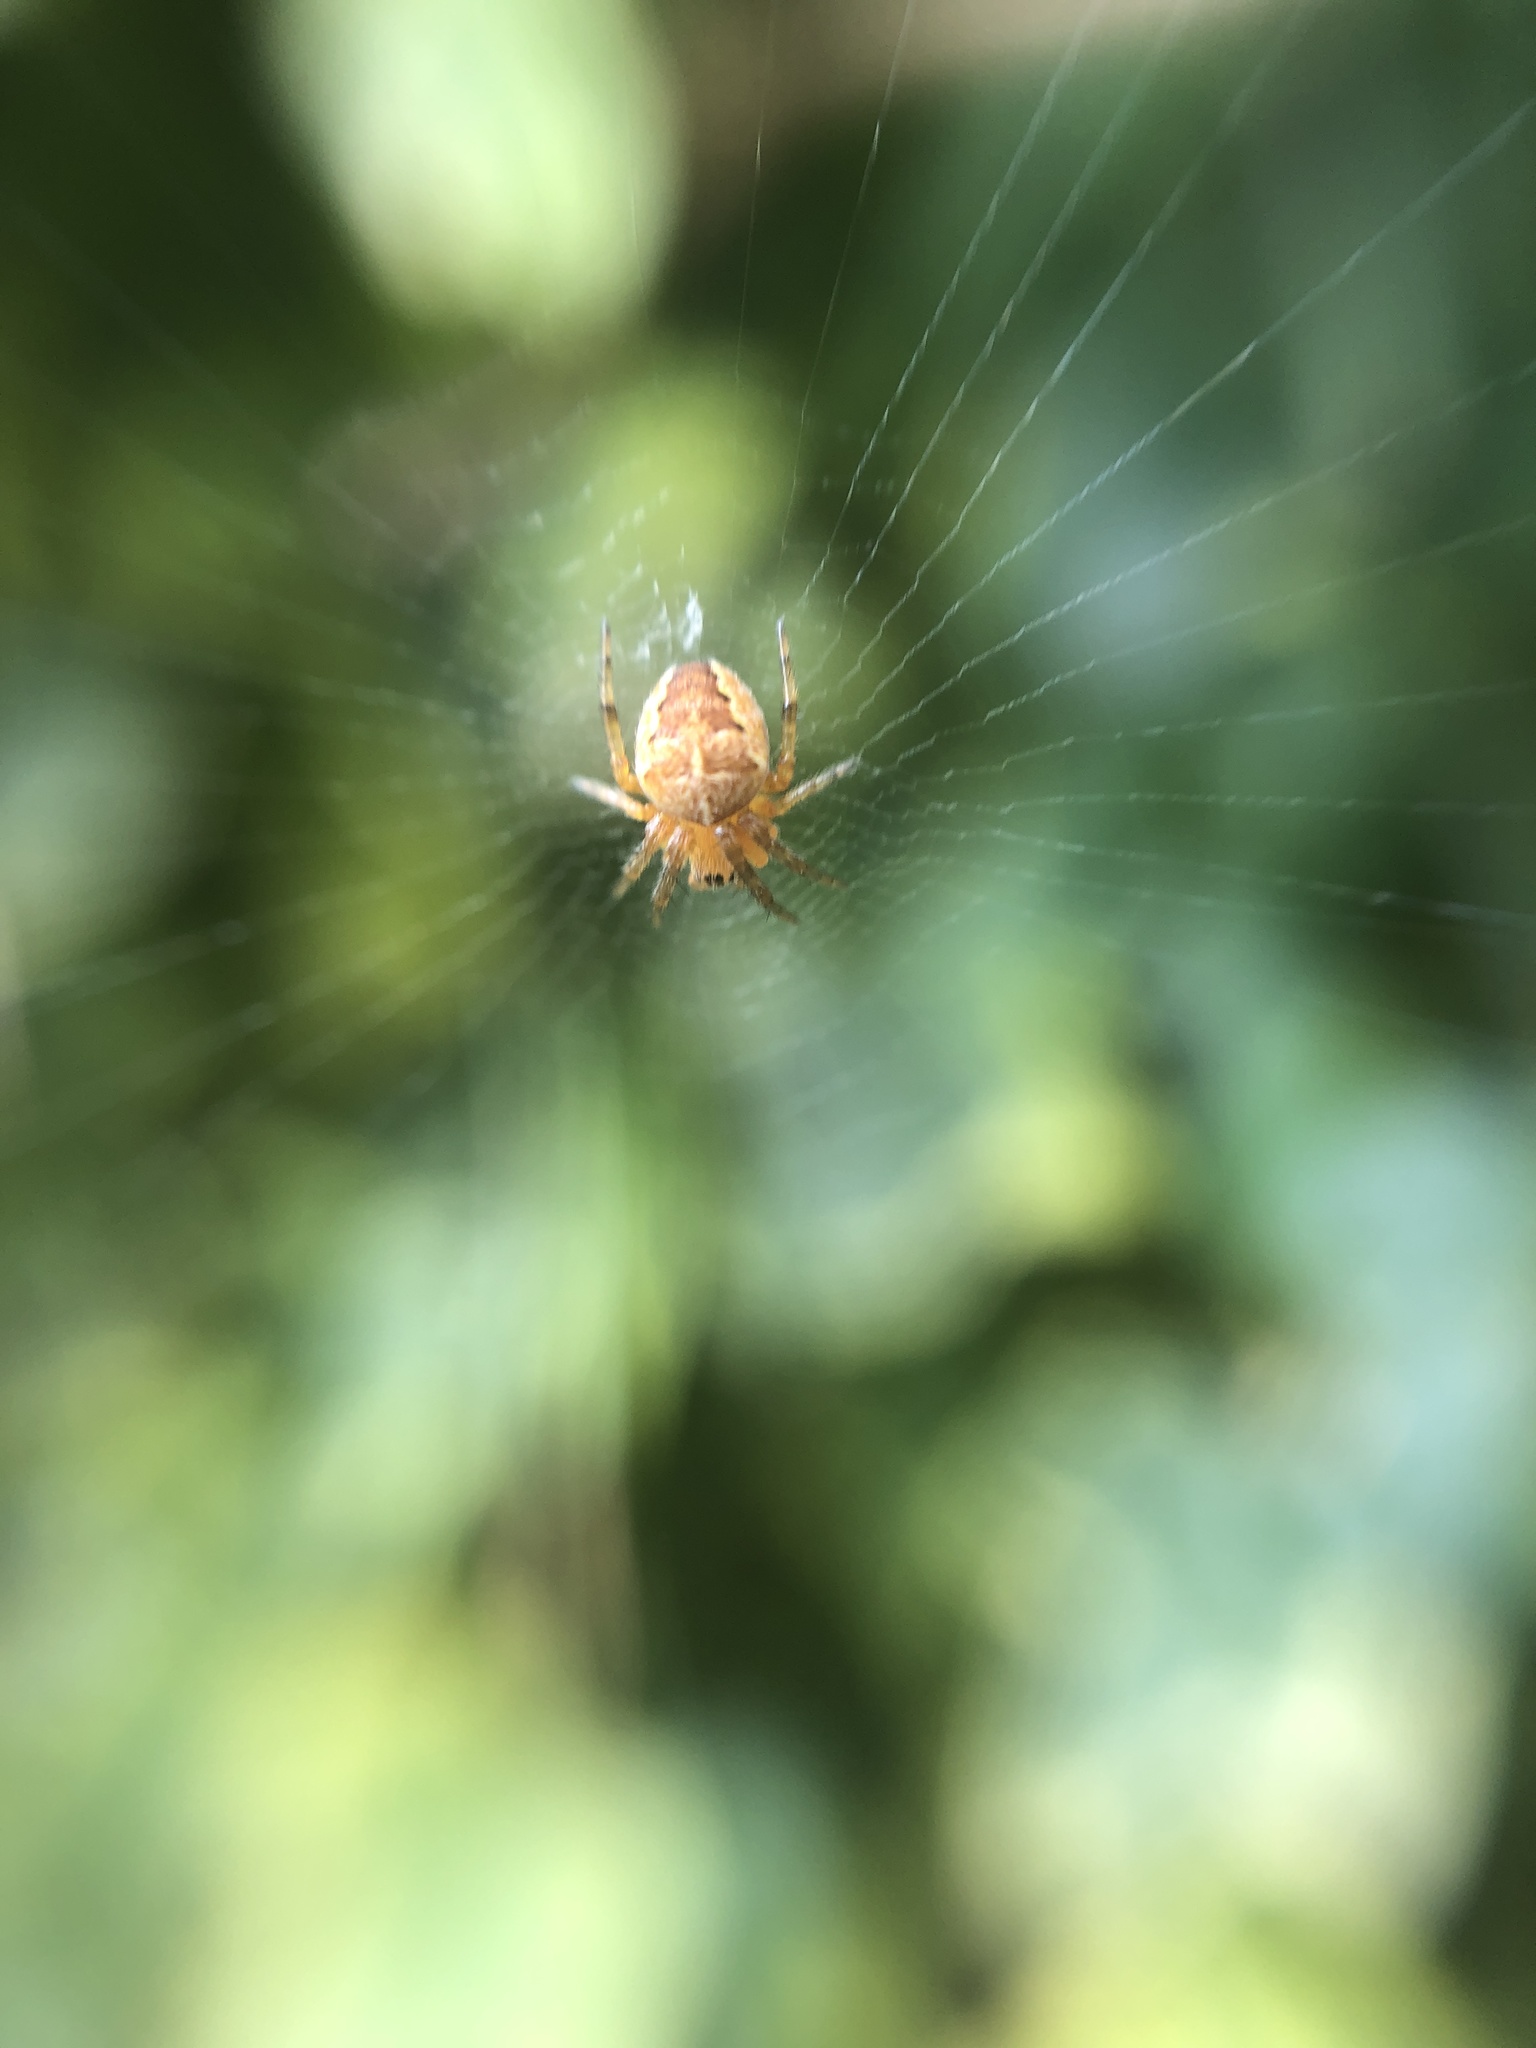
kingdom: Animalia
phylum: Arthropoda
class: Arachnida
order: Araneae
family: Araneidae
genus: Araneus
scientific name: Araneus diadematus
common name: Cross orbweaver
